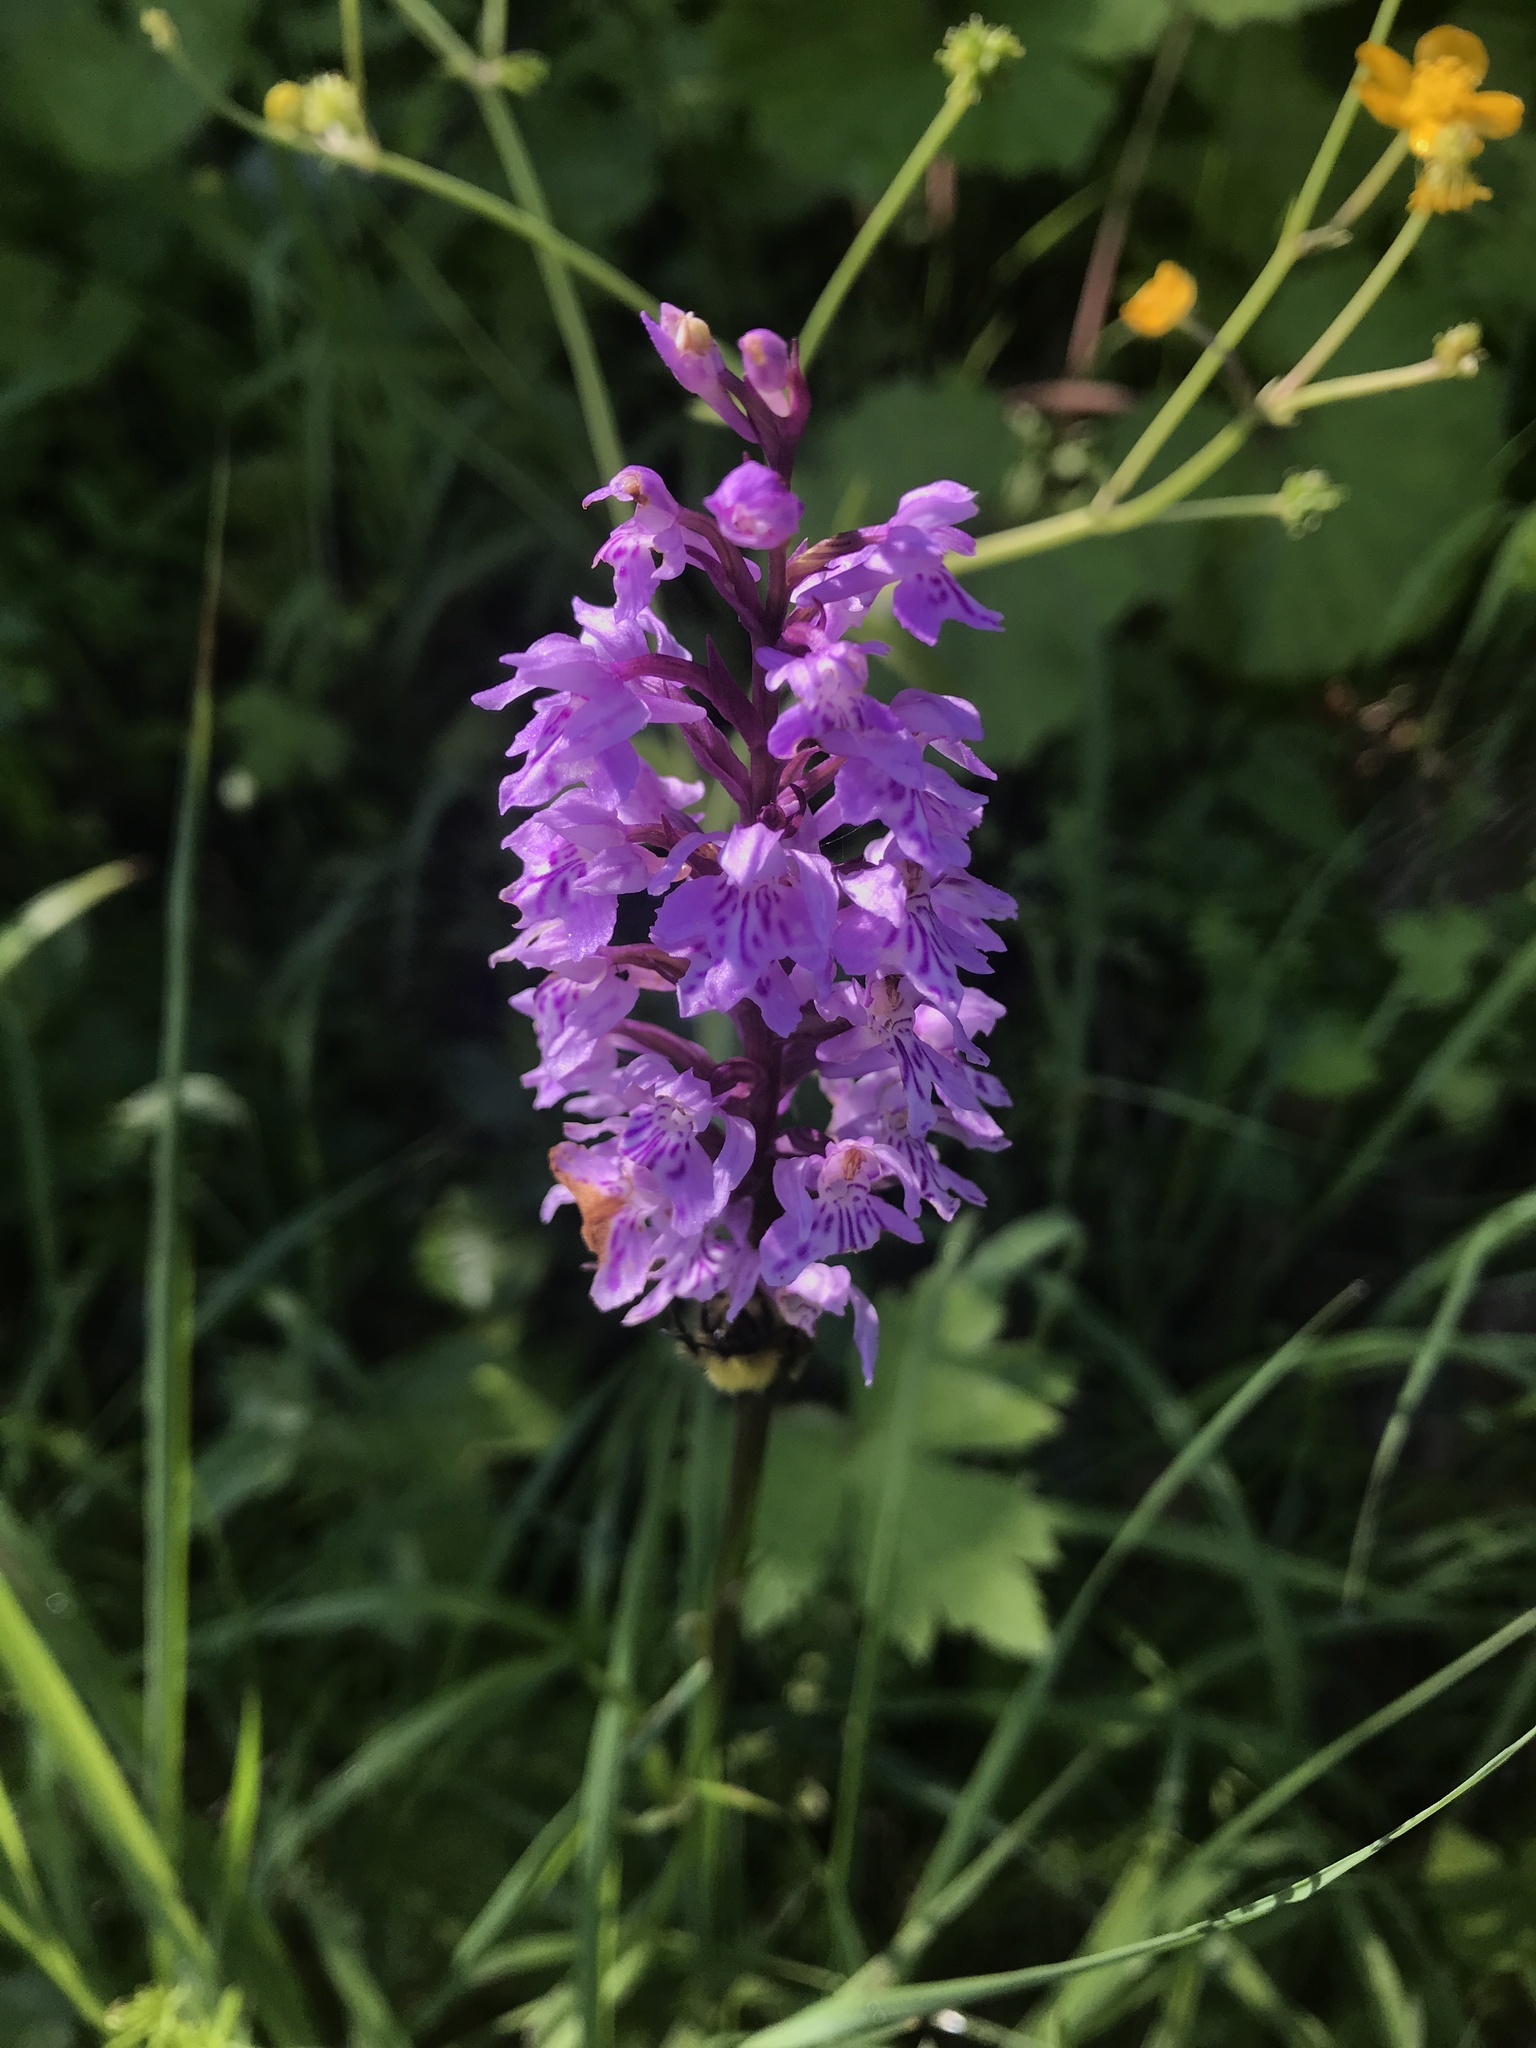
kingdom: Plantae
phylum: Tracheophyta
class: Liliopsida
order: Asparagales
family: Orchidaceae
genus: Dactylorhiza
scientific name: Dactylorhiza maculata
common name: Heath spotted-orchid
